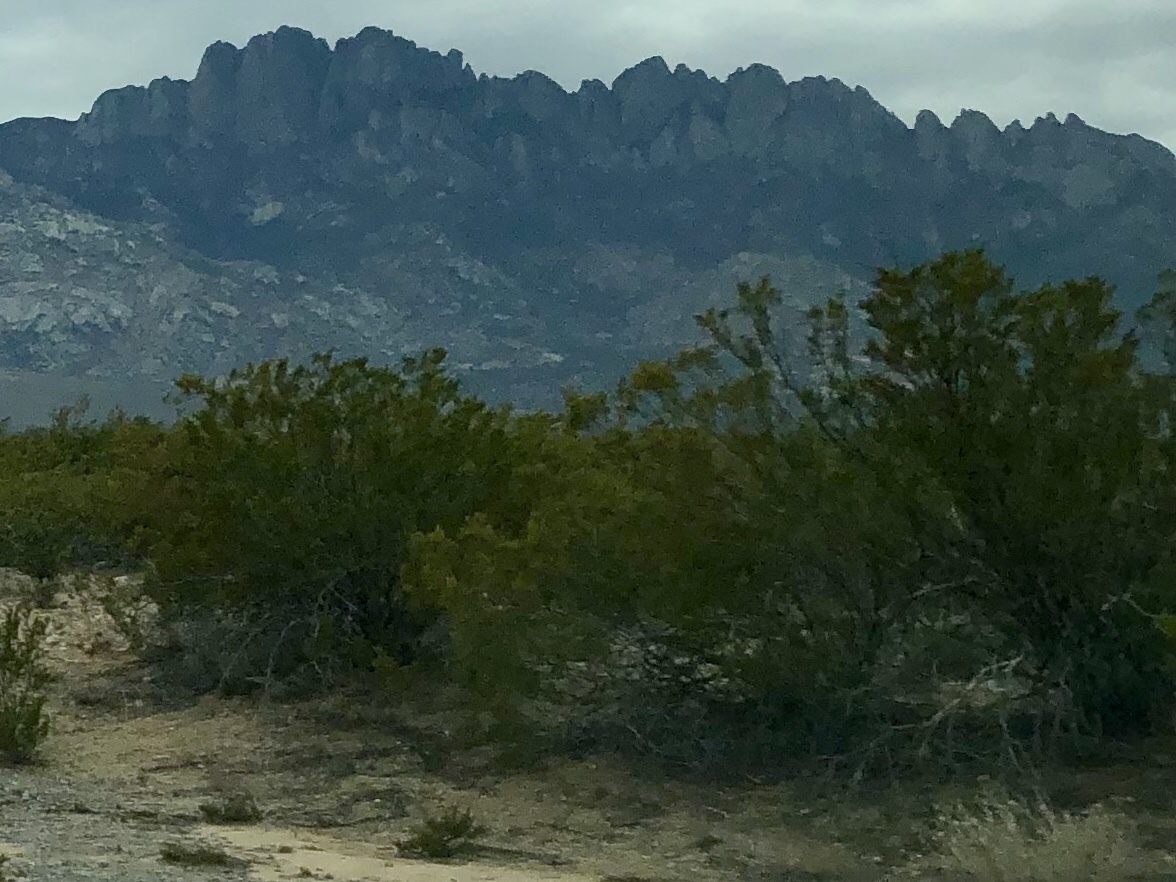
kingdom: Plantae
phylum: Tracheophyta
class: Magnoliopsida
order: Zygophyllales
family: Zygophyllaceae
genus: Larrea
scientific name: Larrea tridentata
